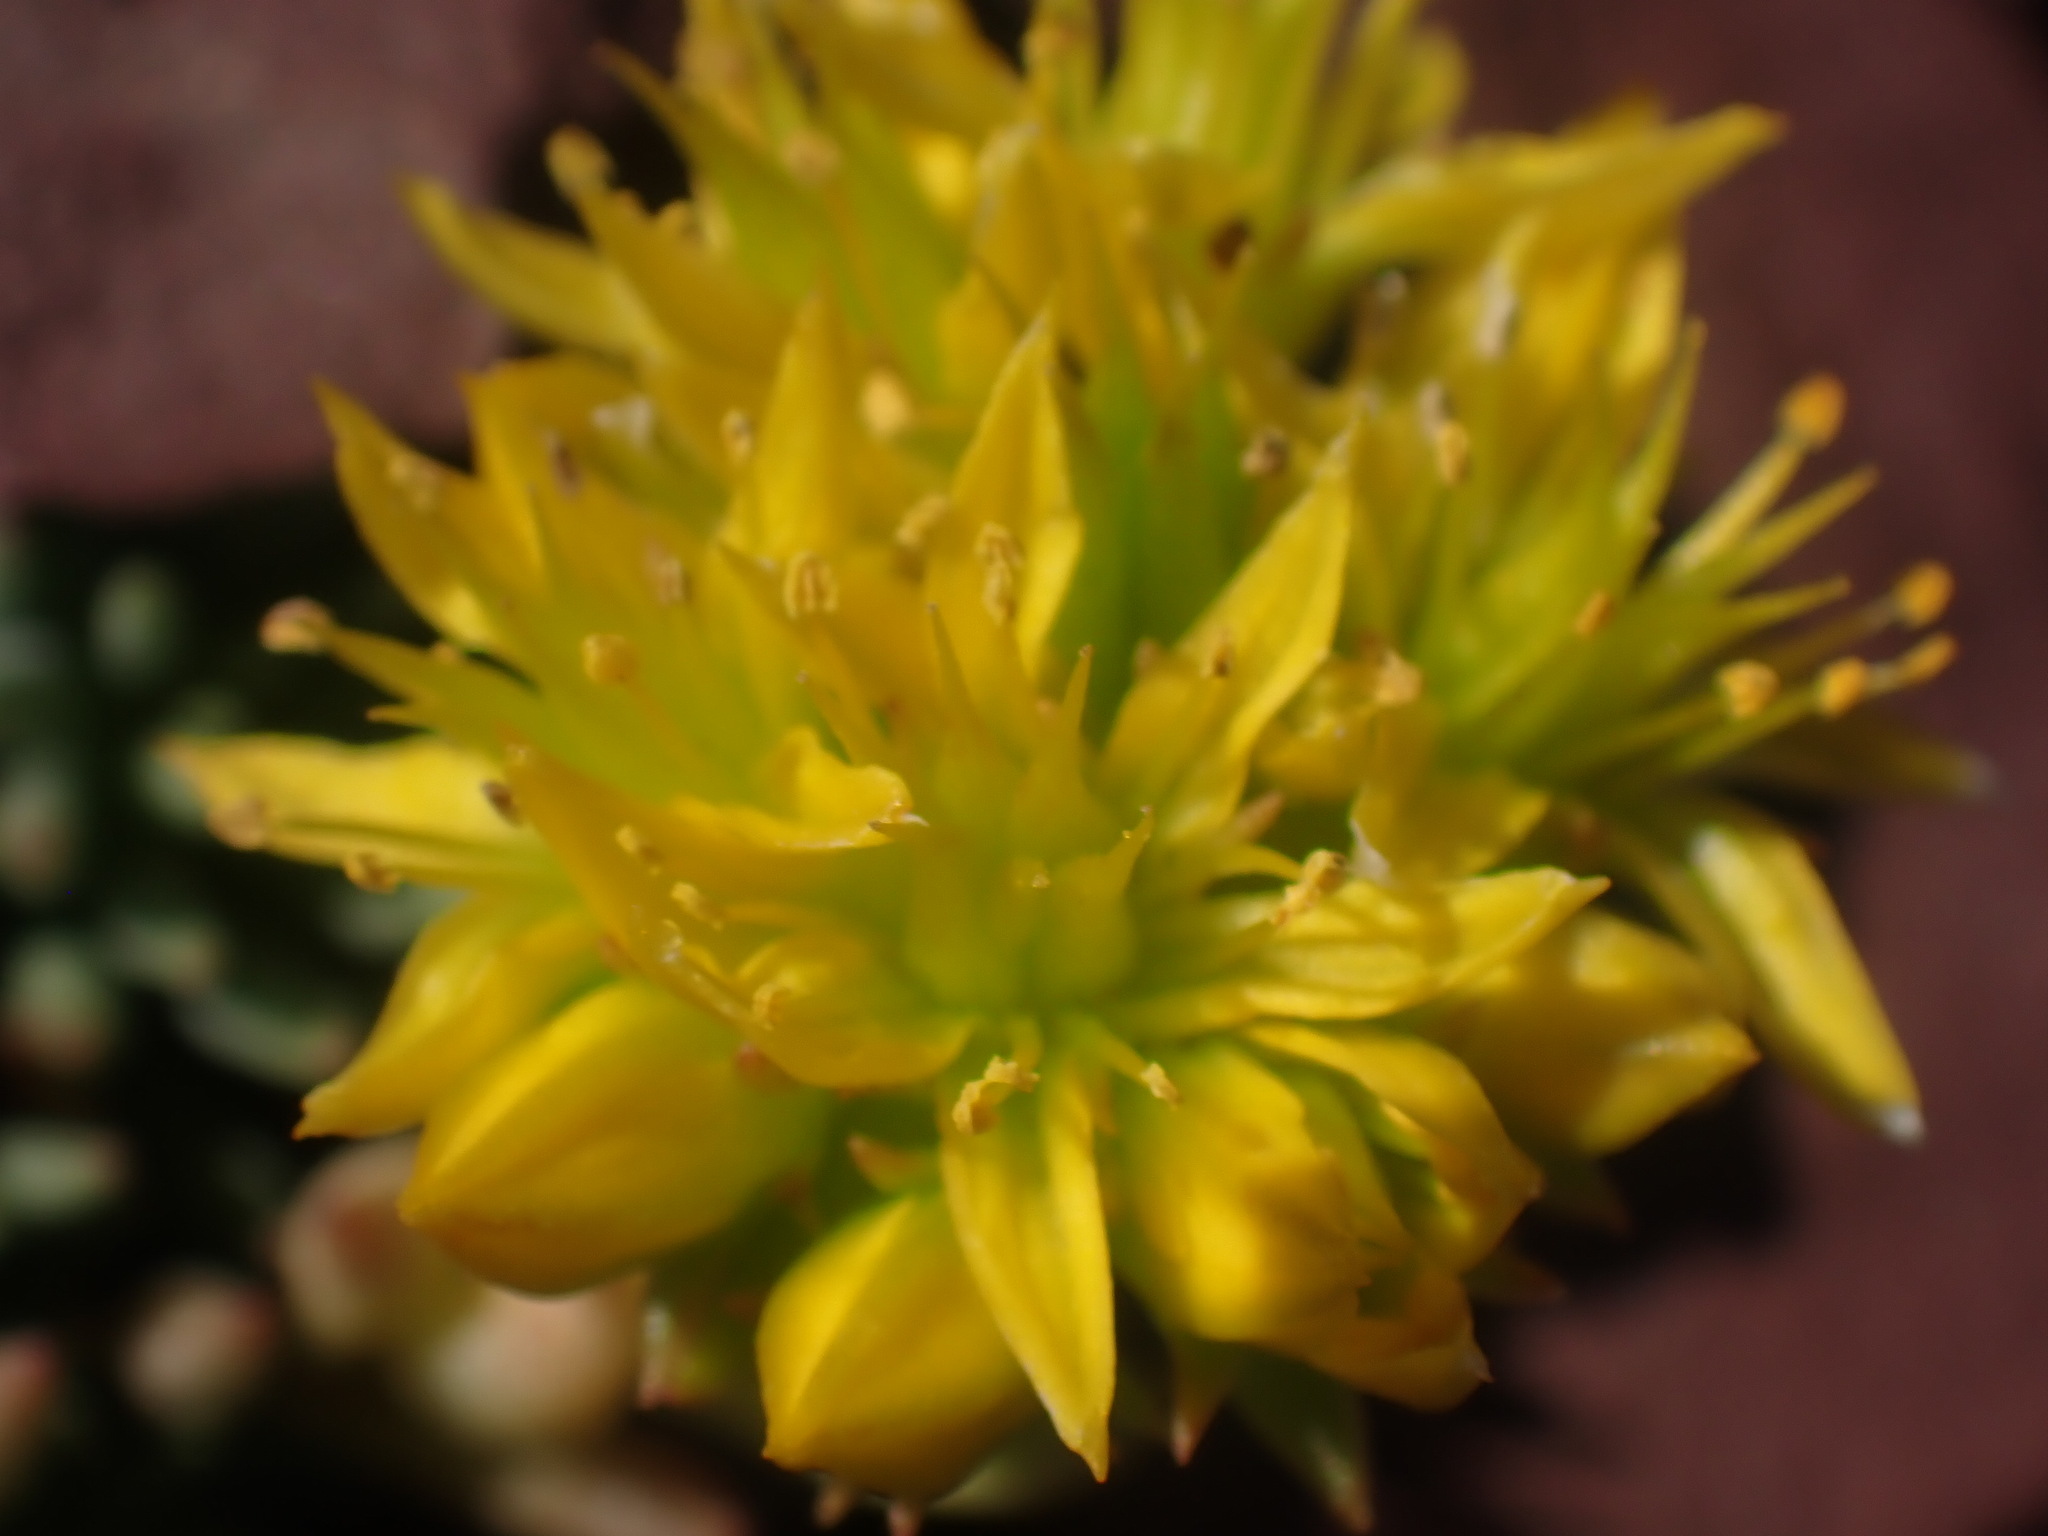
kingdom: Plantae
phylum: Tracheophyta
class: Magnoliopsida
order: Saxifragales
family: Crassulaceae
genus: Sedum
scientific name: Sedum lanceolatum
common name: Common stonecrop
